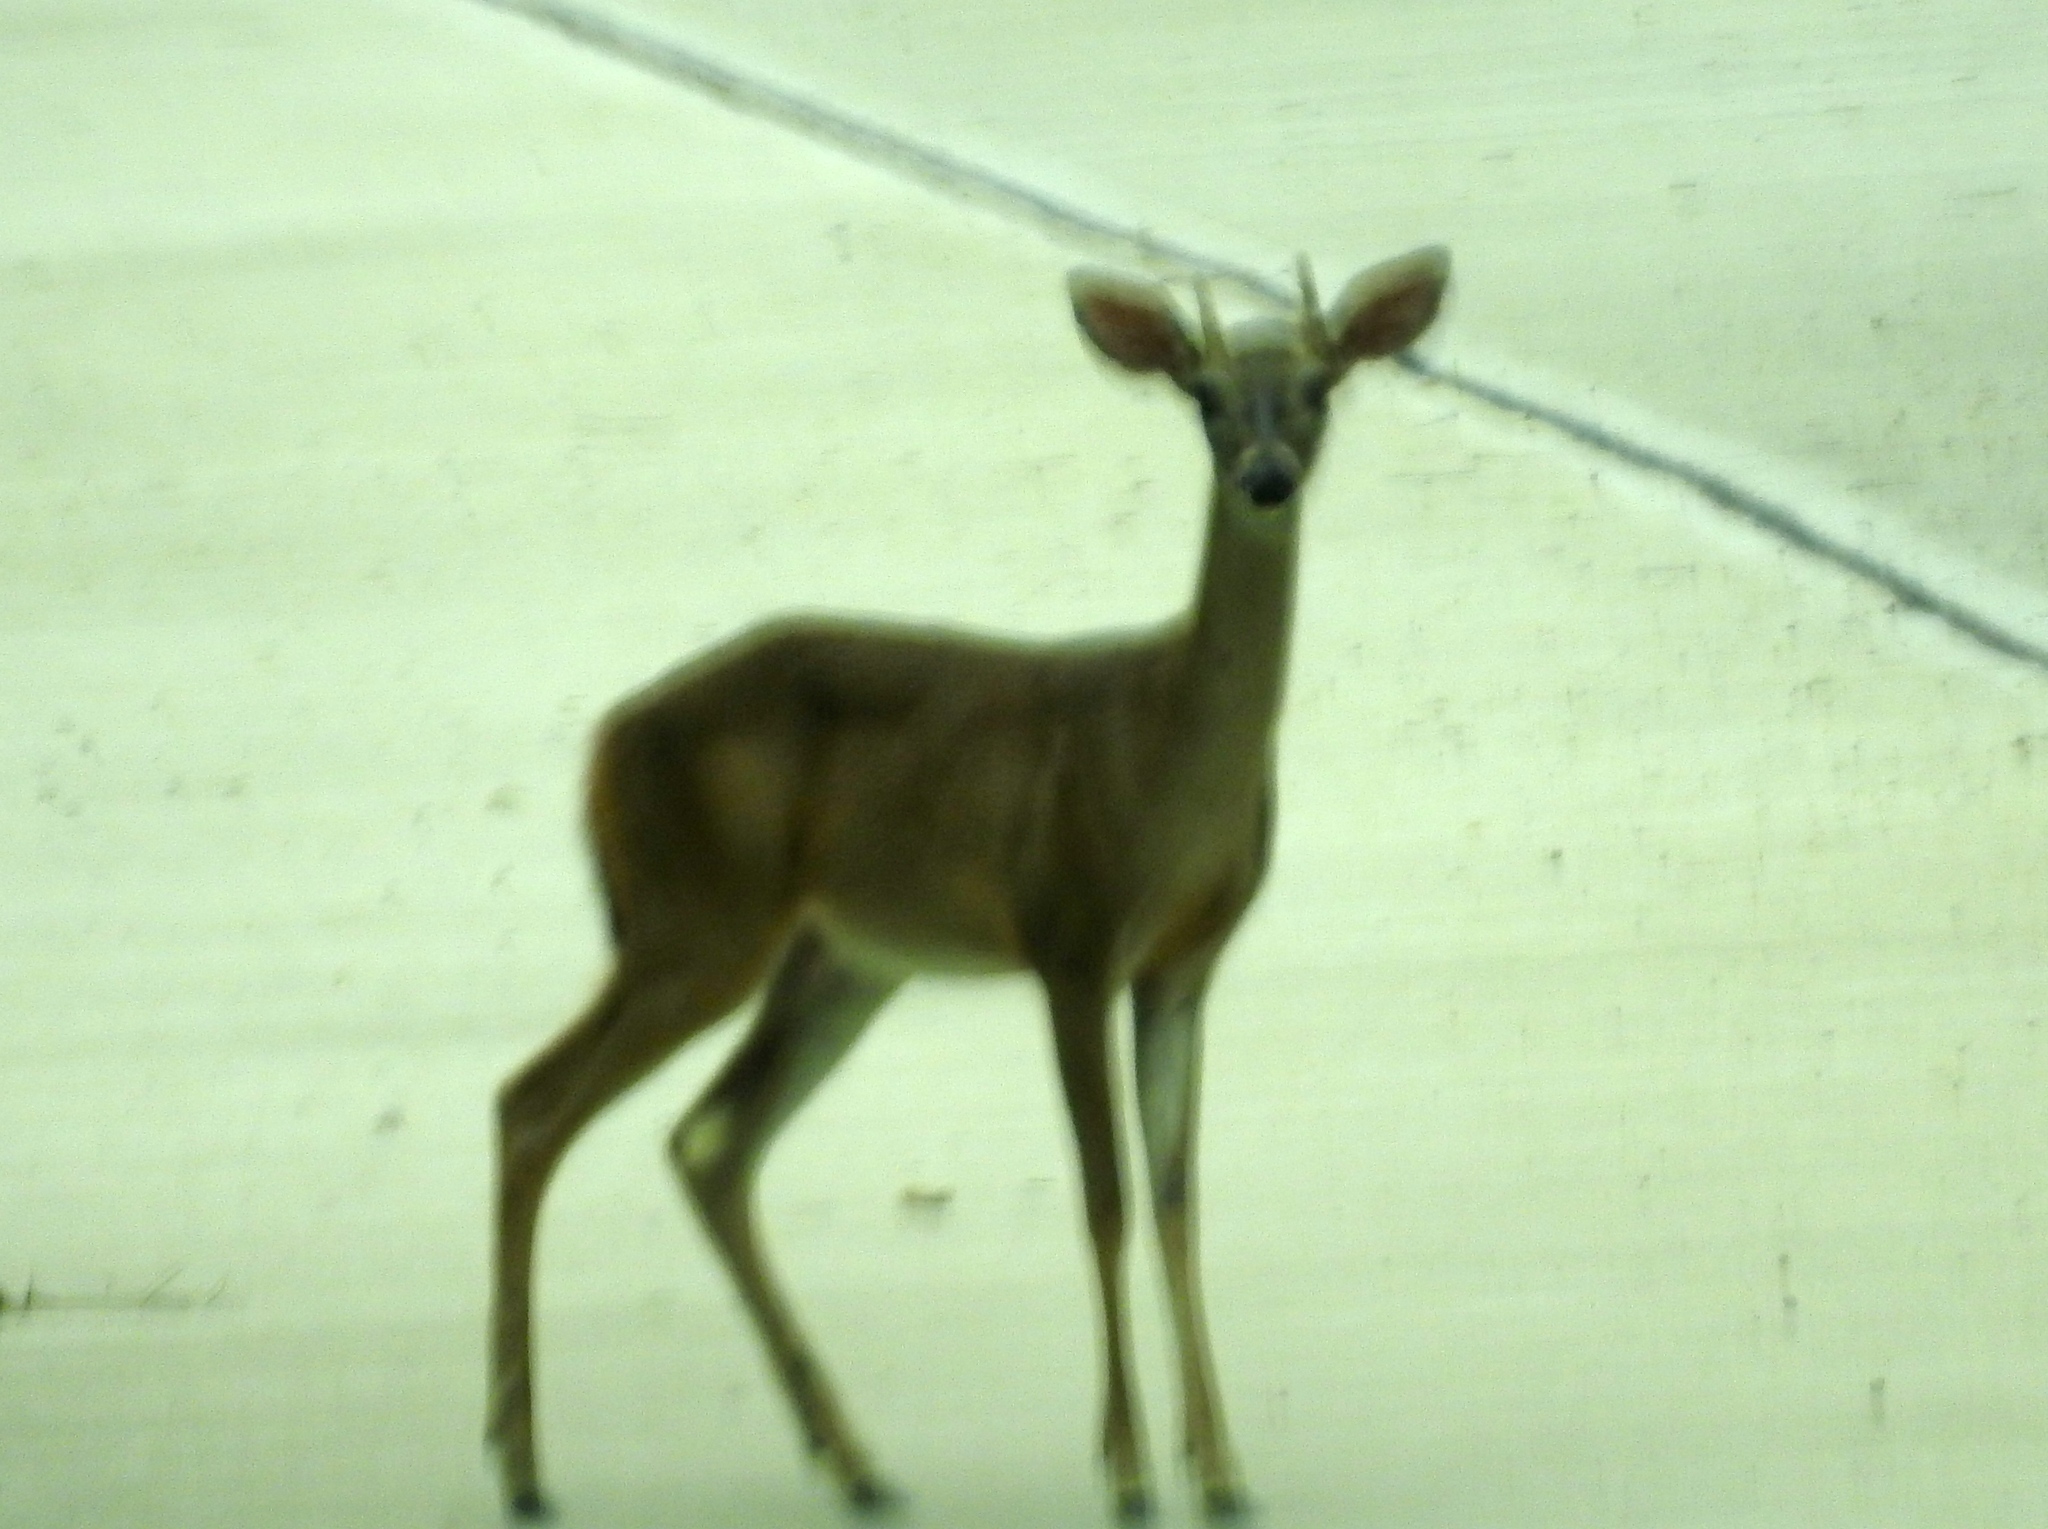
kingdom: Animalia
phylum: Chordata
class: Mammalia
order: Artiodactyla
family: Cervidae
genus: Odocoileus
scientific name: Odocoileus virginianus
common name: White-tailed deer
